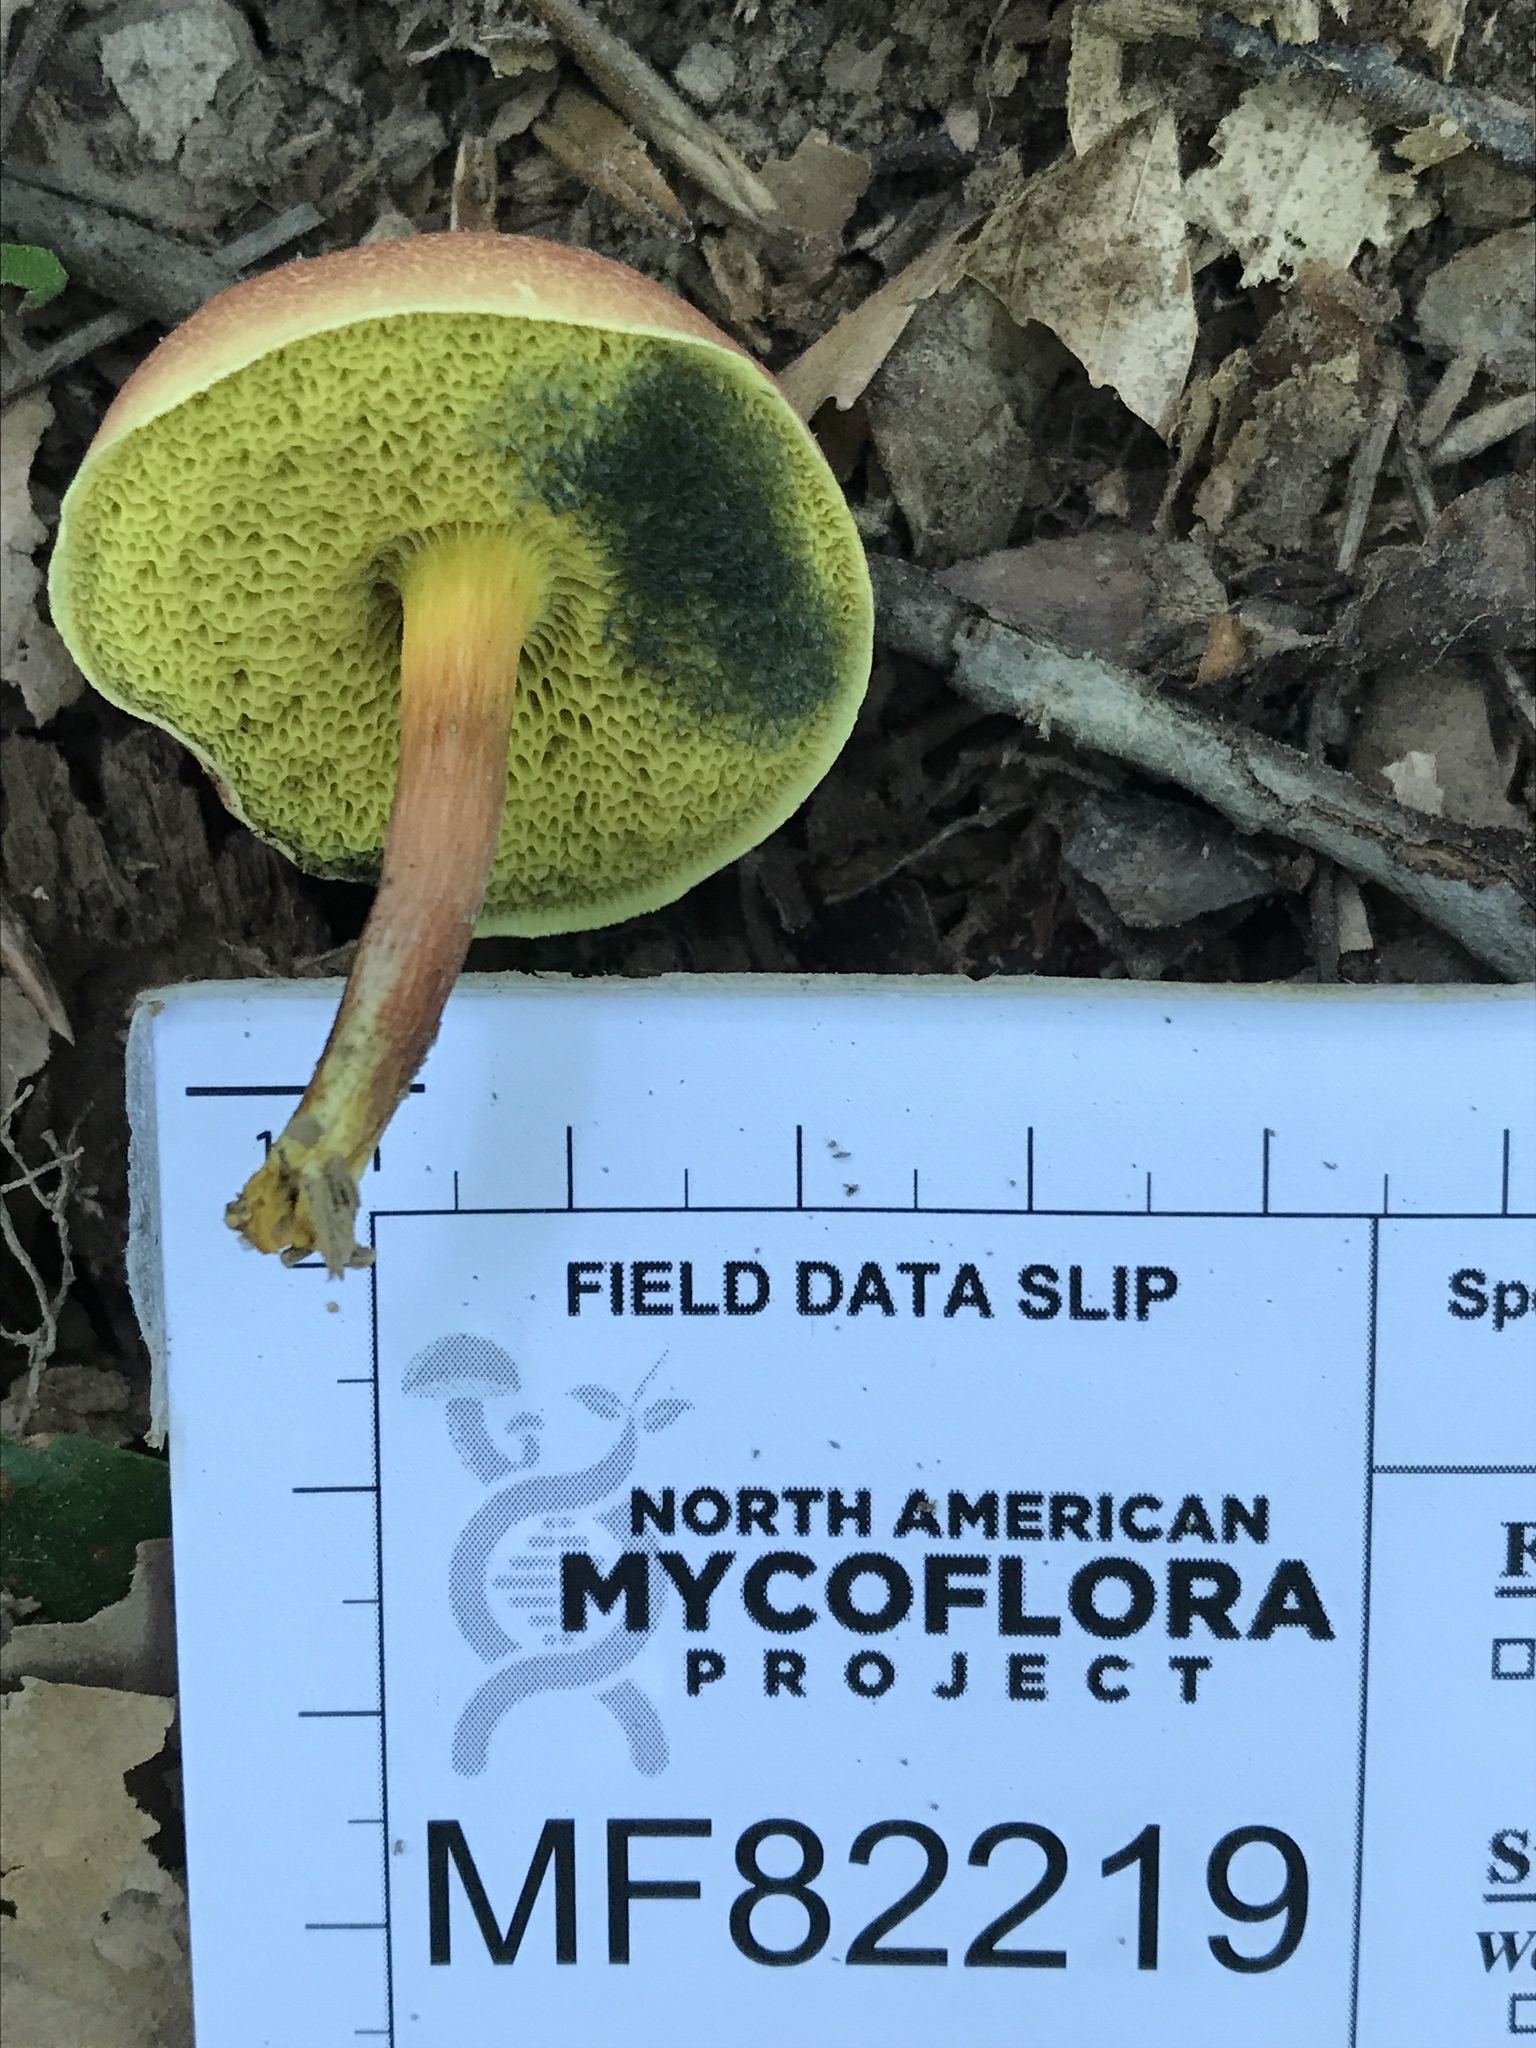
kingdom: Fungi
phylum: Basidiomycota
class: Agaricomycetes
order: Boletales
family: Boletaceae
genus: Hortiboletus
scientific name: Hortiboletus rubellus
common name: Ruby bolete
